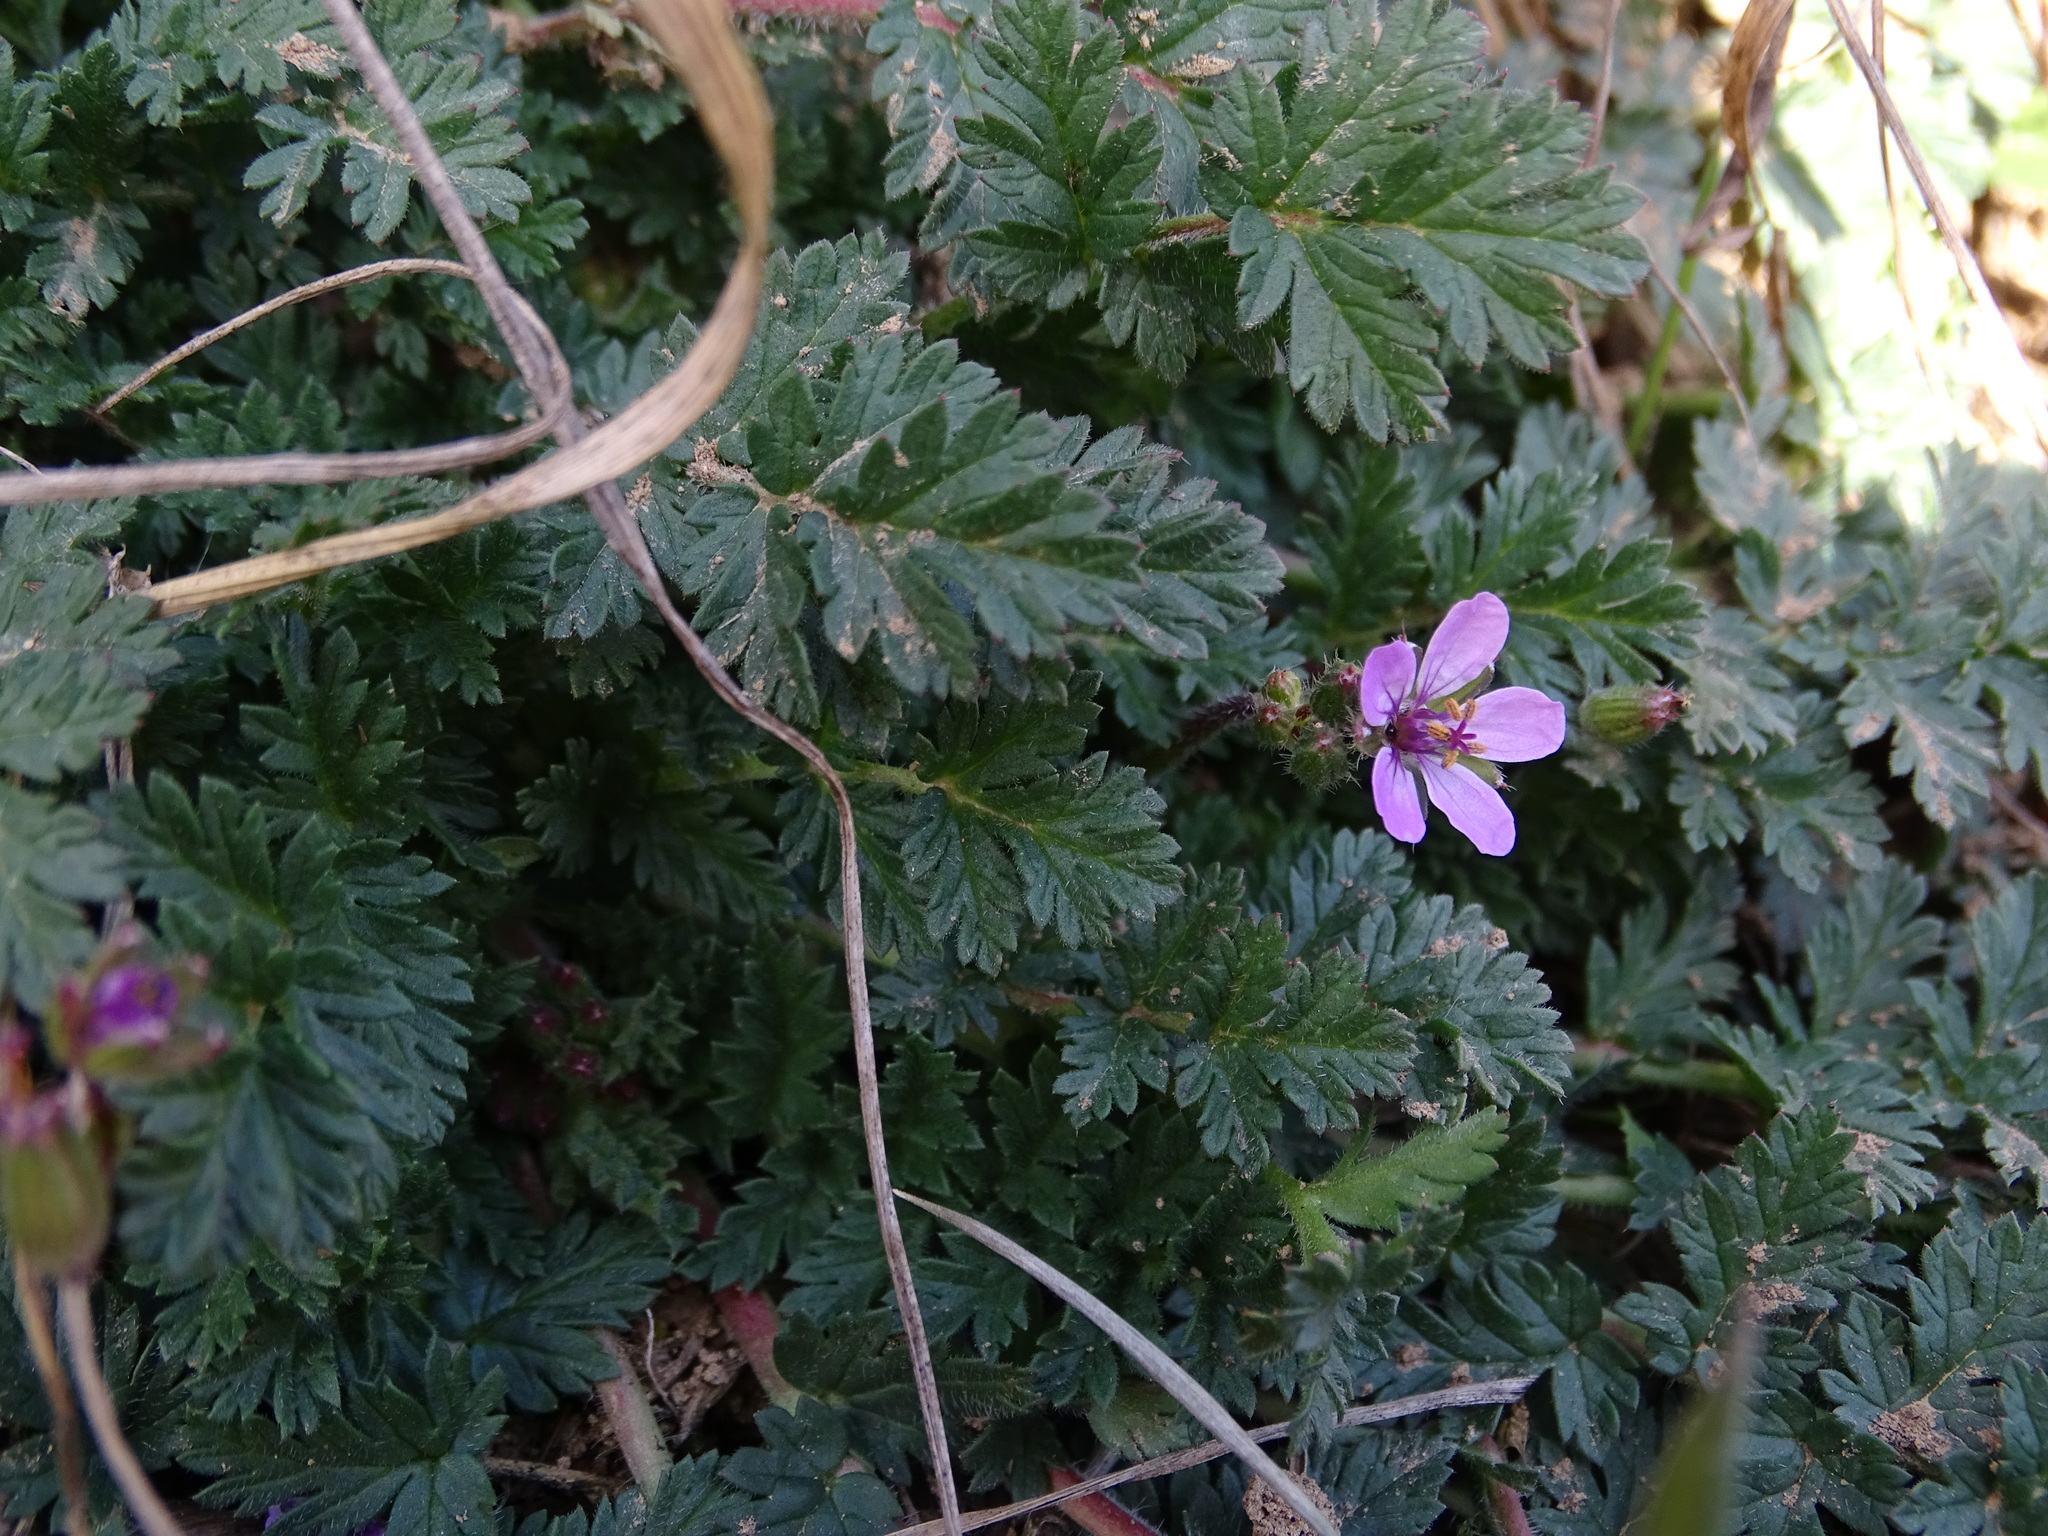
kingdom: Plantae
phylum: Tracheophyta
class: Magnoliopsida
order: Geraniales
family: Geraniaceae
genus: Erodium
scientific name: Erodium cicutarium
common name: Common stork's-bill
